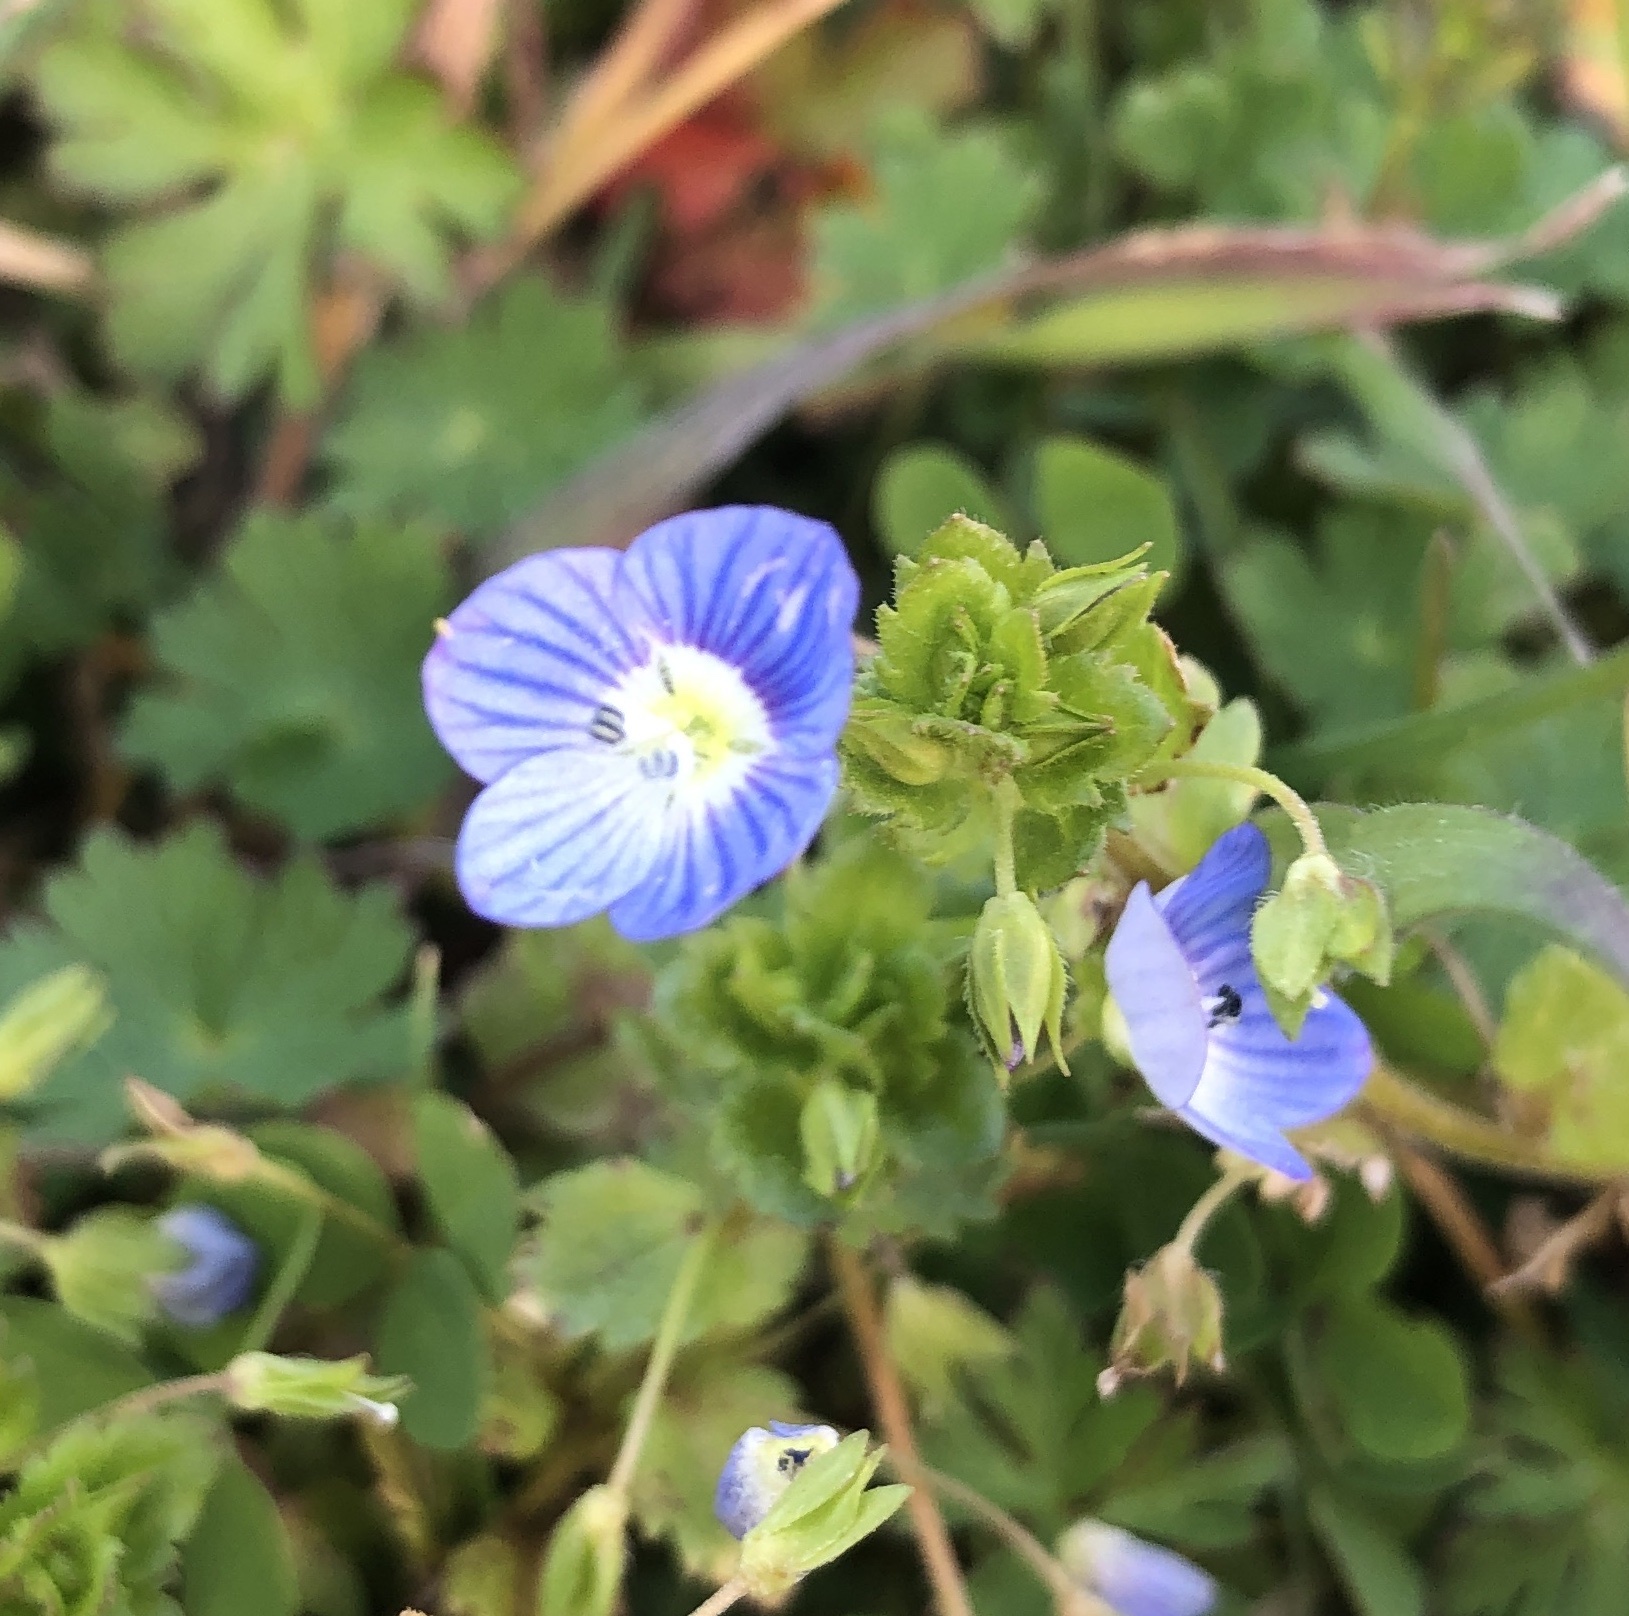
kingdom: Plantae
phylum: Tracheophyta
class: Magnoliopsida
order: Lamiales
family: Plantaginaceae
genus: Veronica
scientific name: Veronica persica
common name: Common field-speedwell
